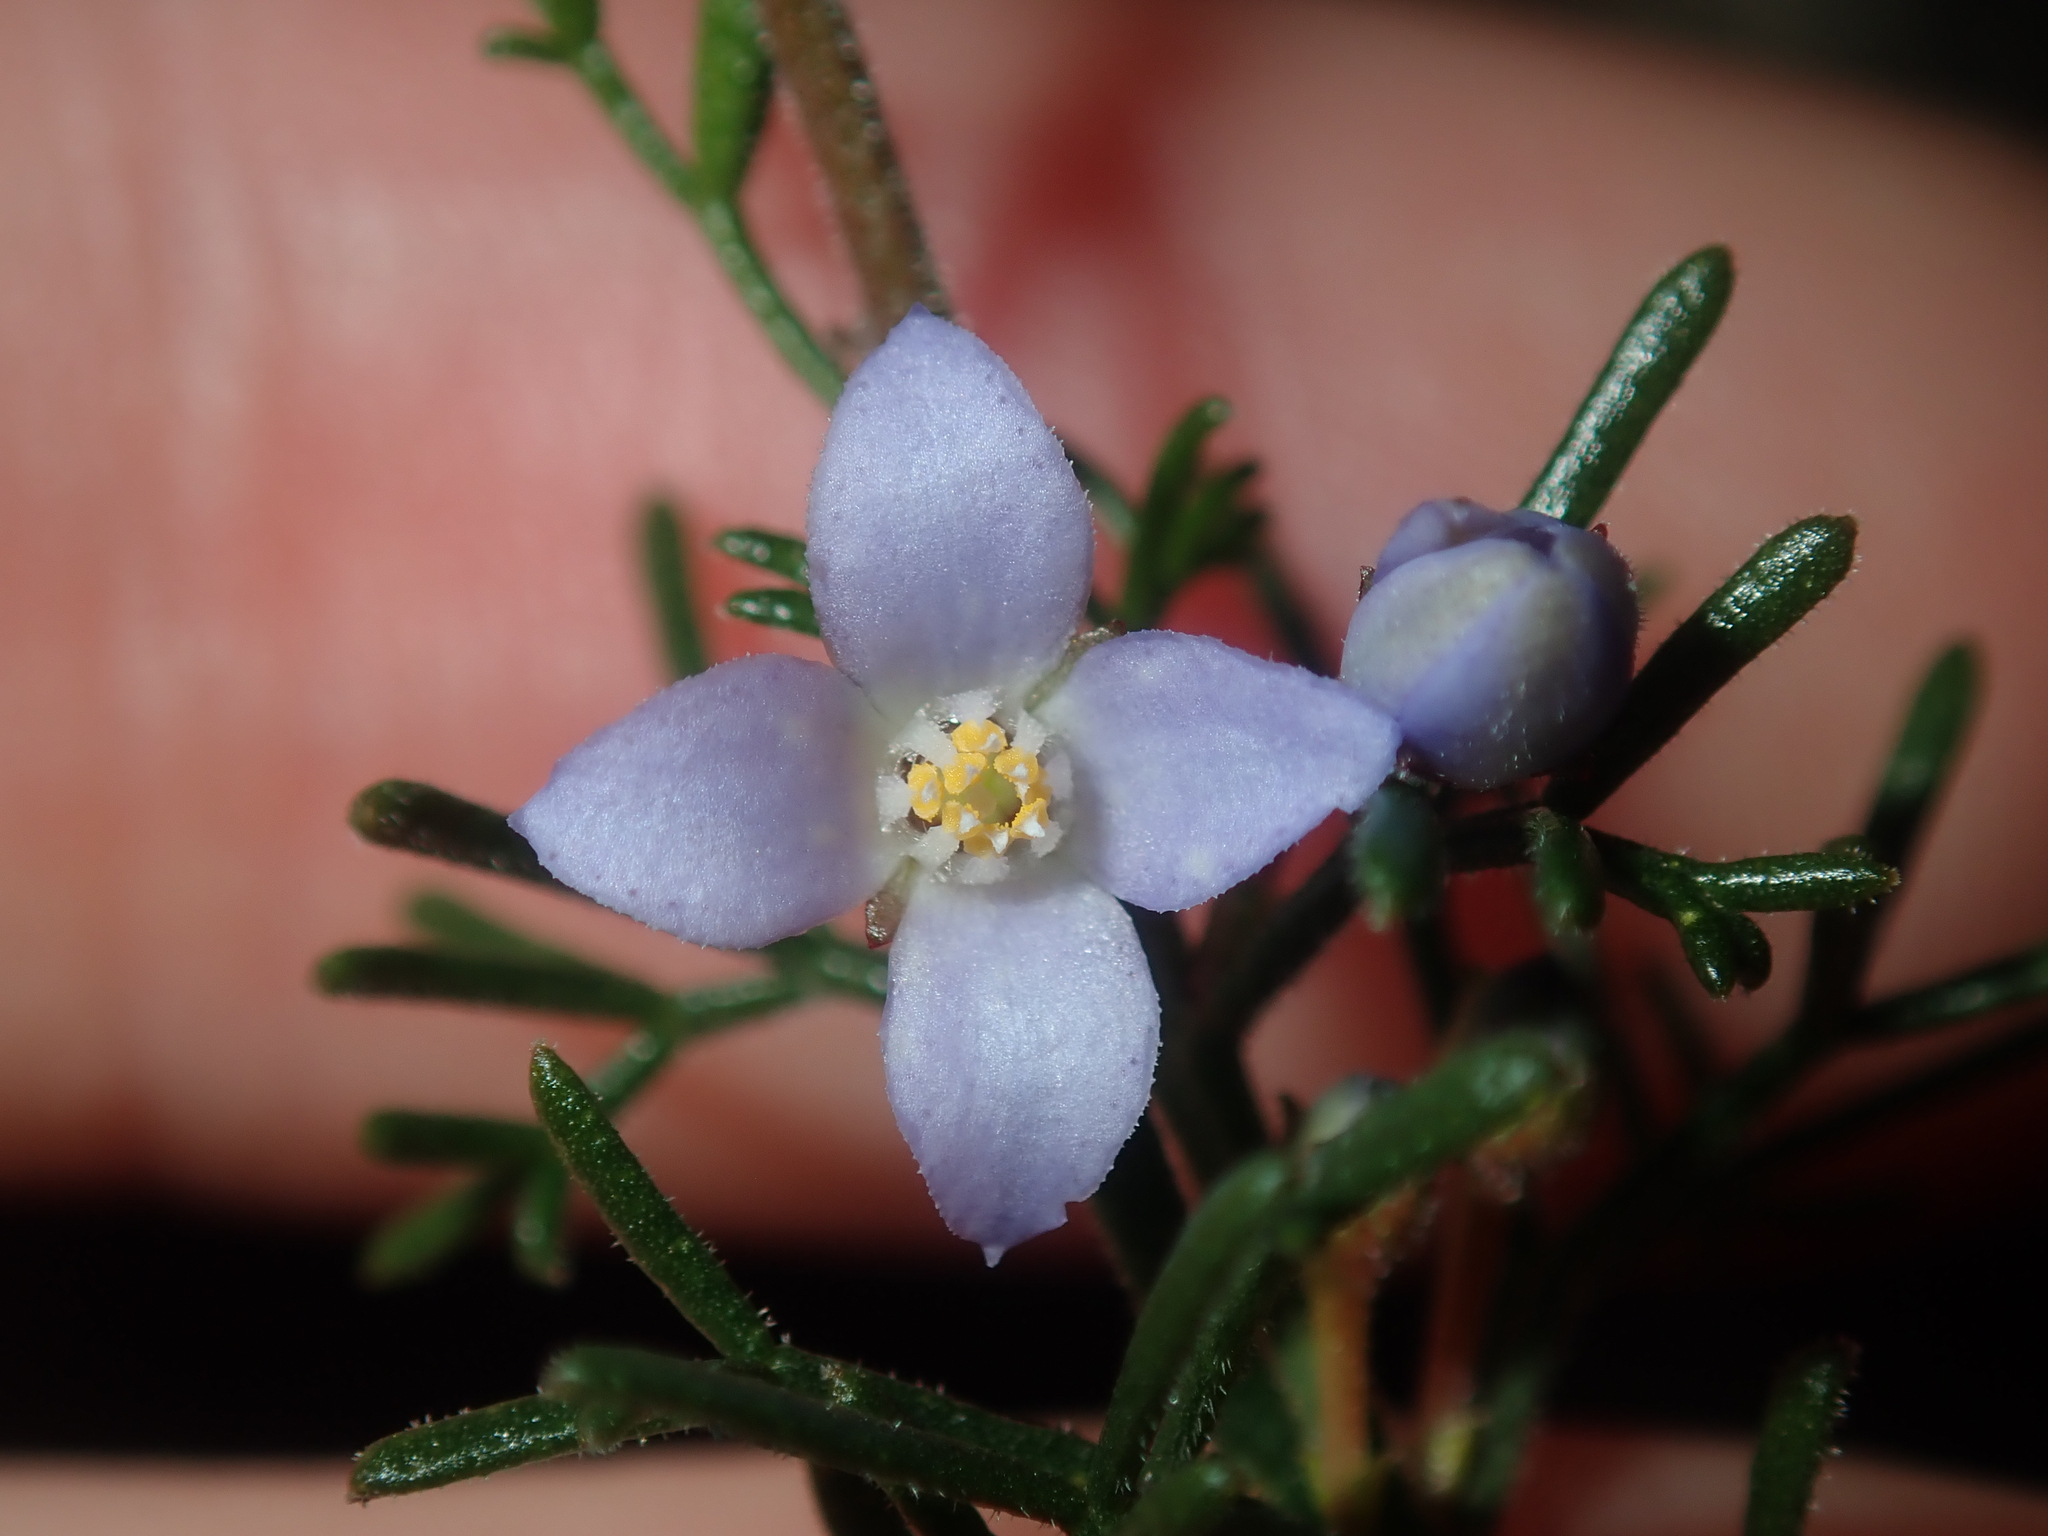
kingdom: Plantae
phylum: Tracheophyta
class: Magnoliopsida
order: Sapindales
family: Rutaceae
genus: Cyanothamnus
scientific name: Cyanothamnus ramosus
